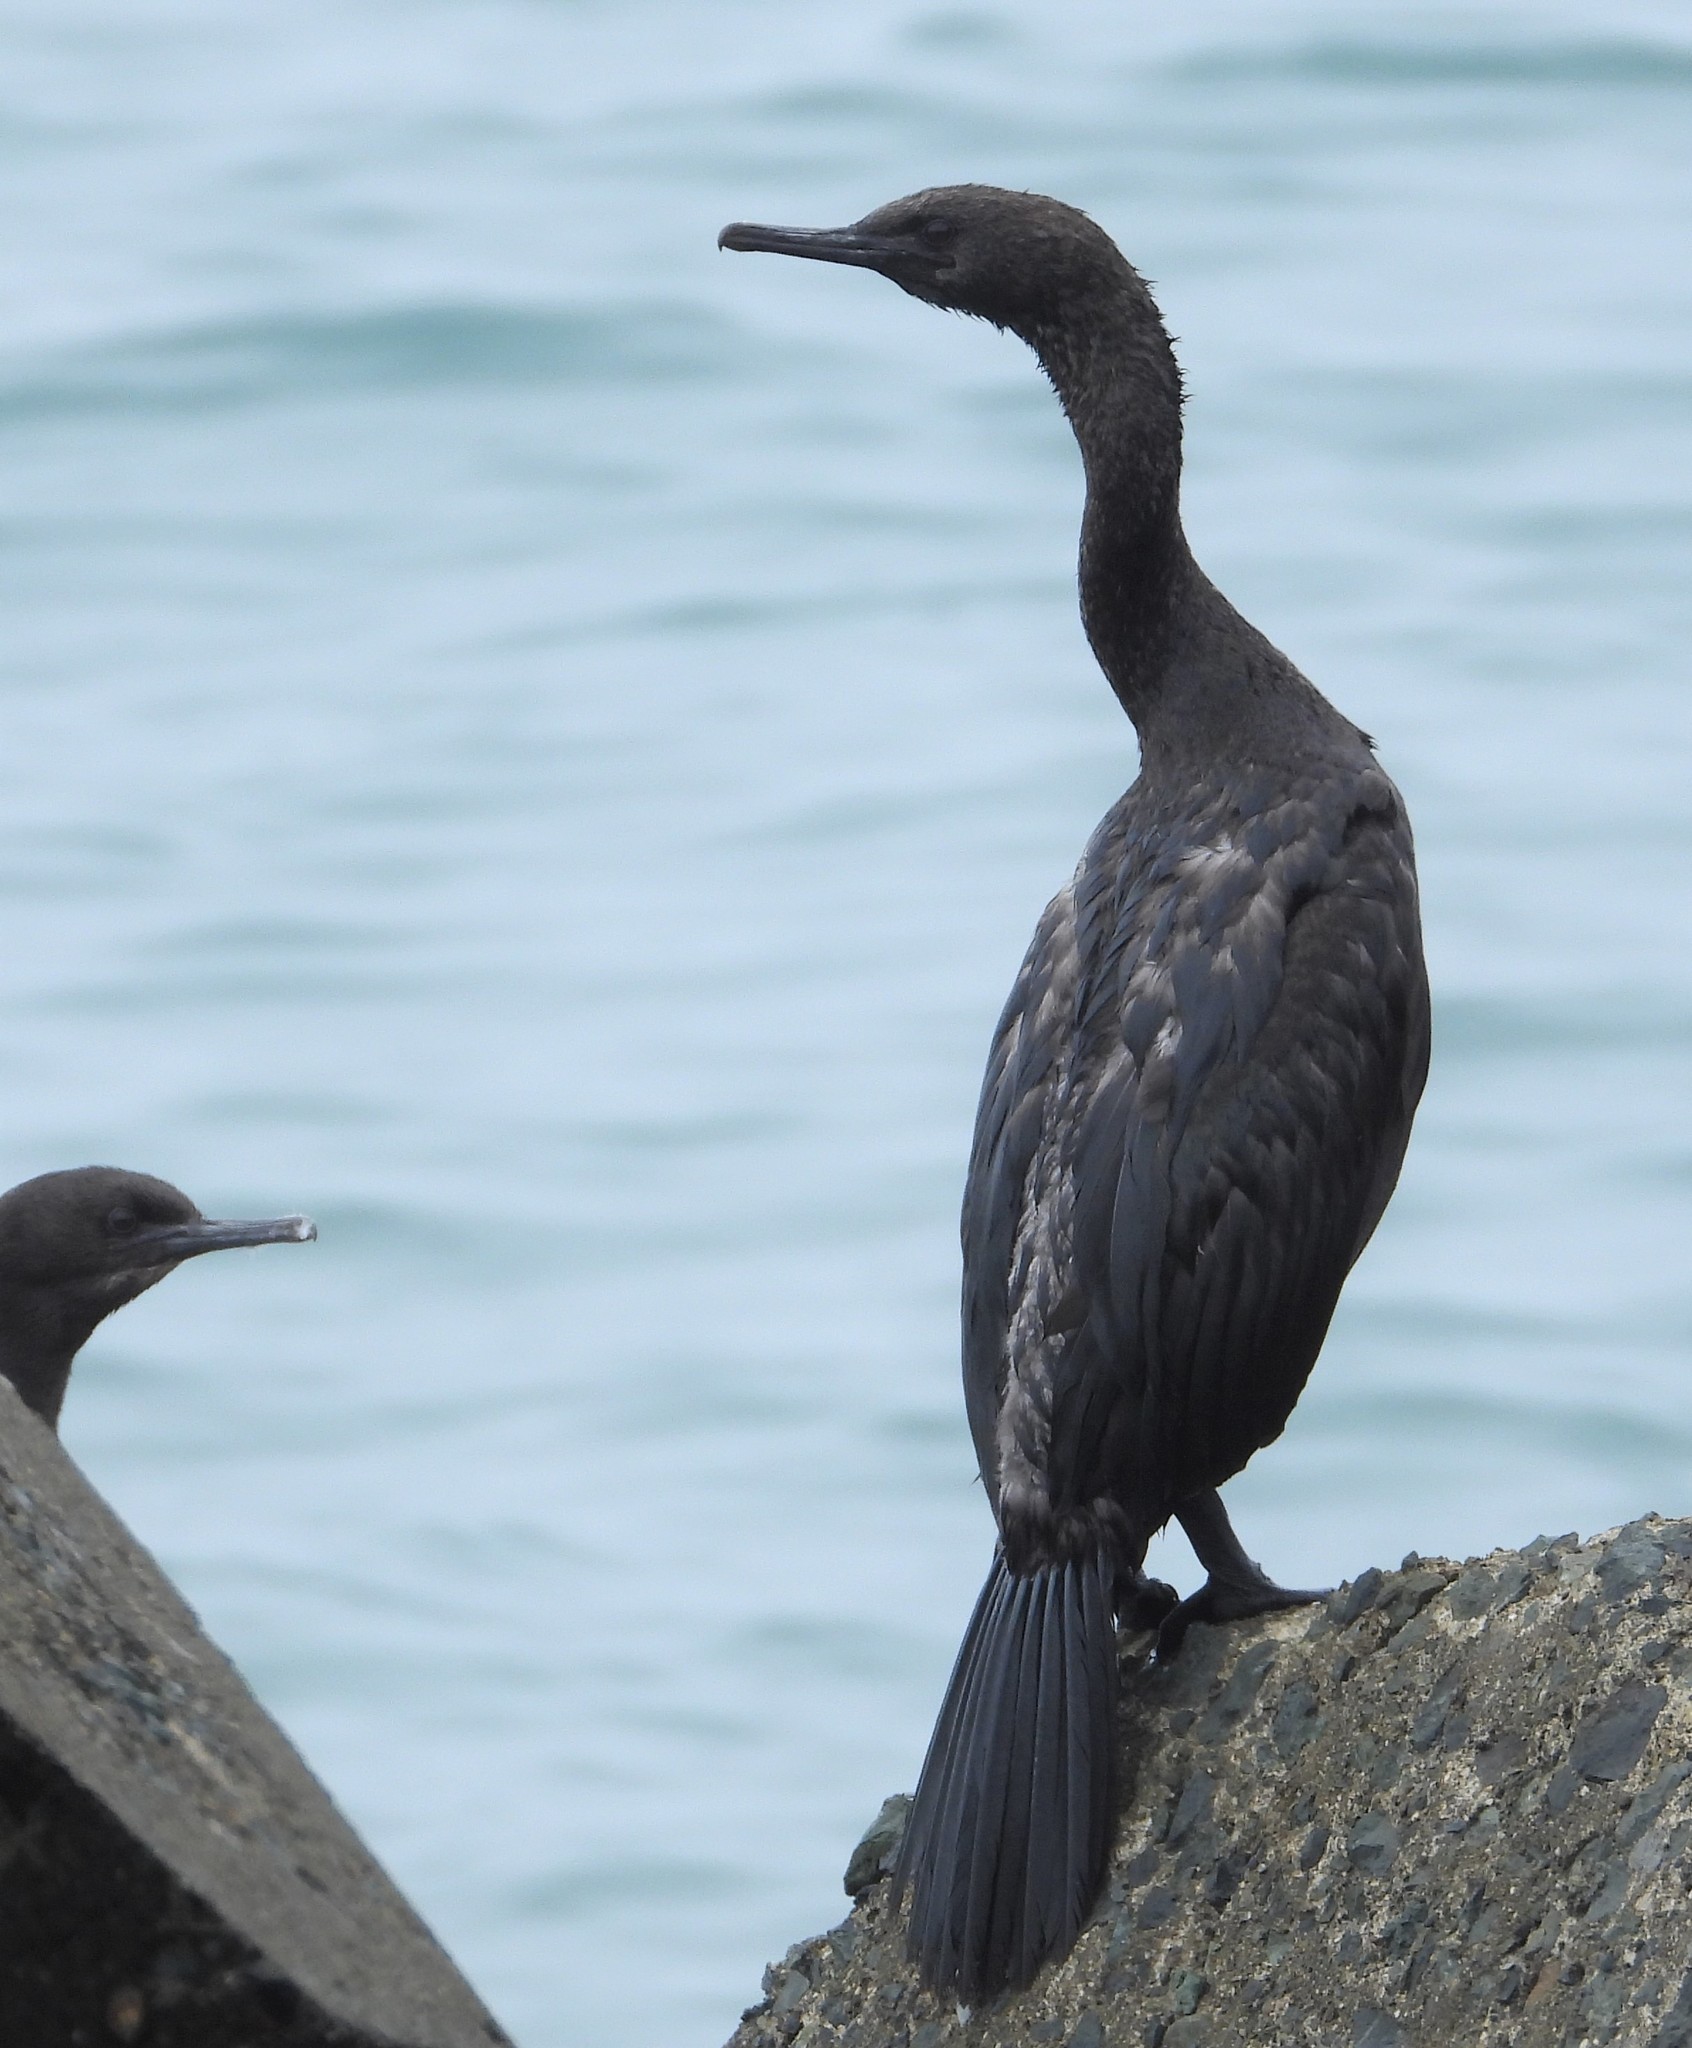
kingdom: Animalia
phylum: Chordata
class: Aves
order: Suliformes
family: Phalacrocoracidae
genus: Phalacrocorax
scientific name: Phalacrocorax pelagicus
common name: Pelagic cormorant
